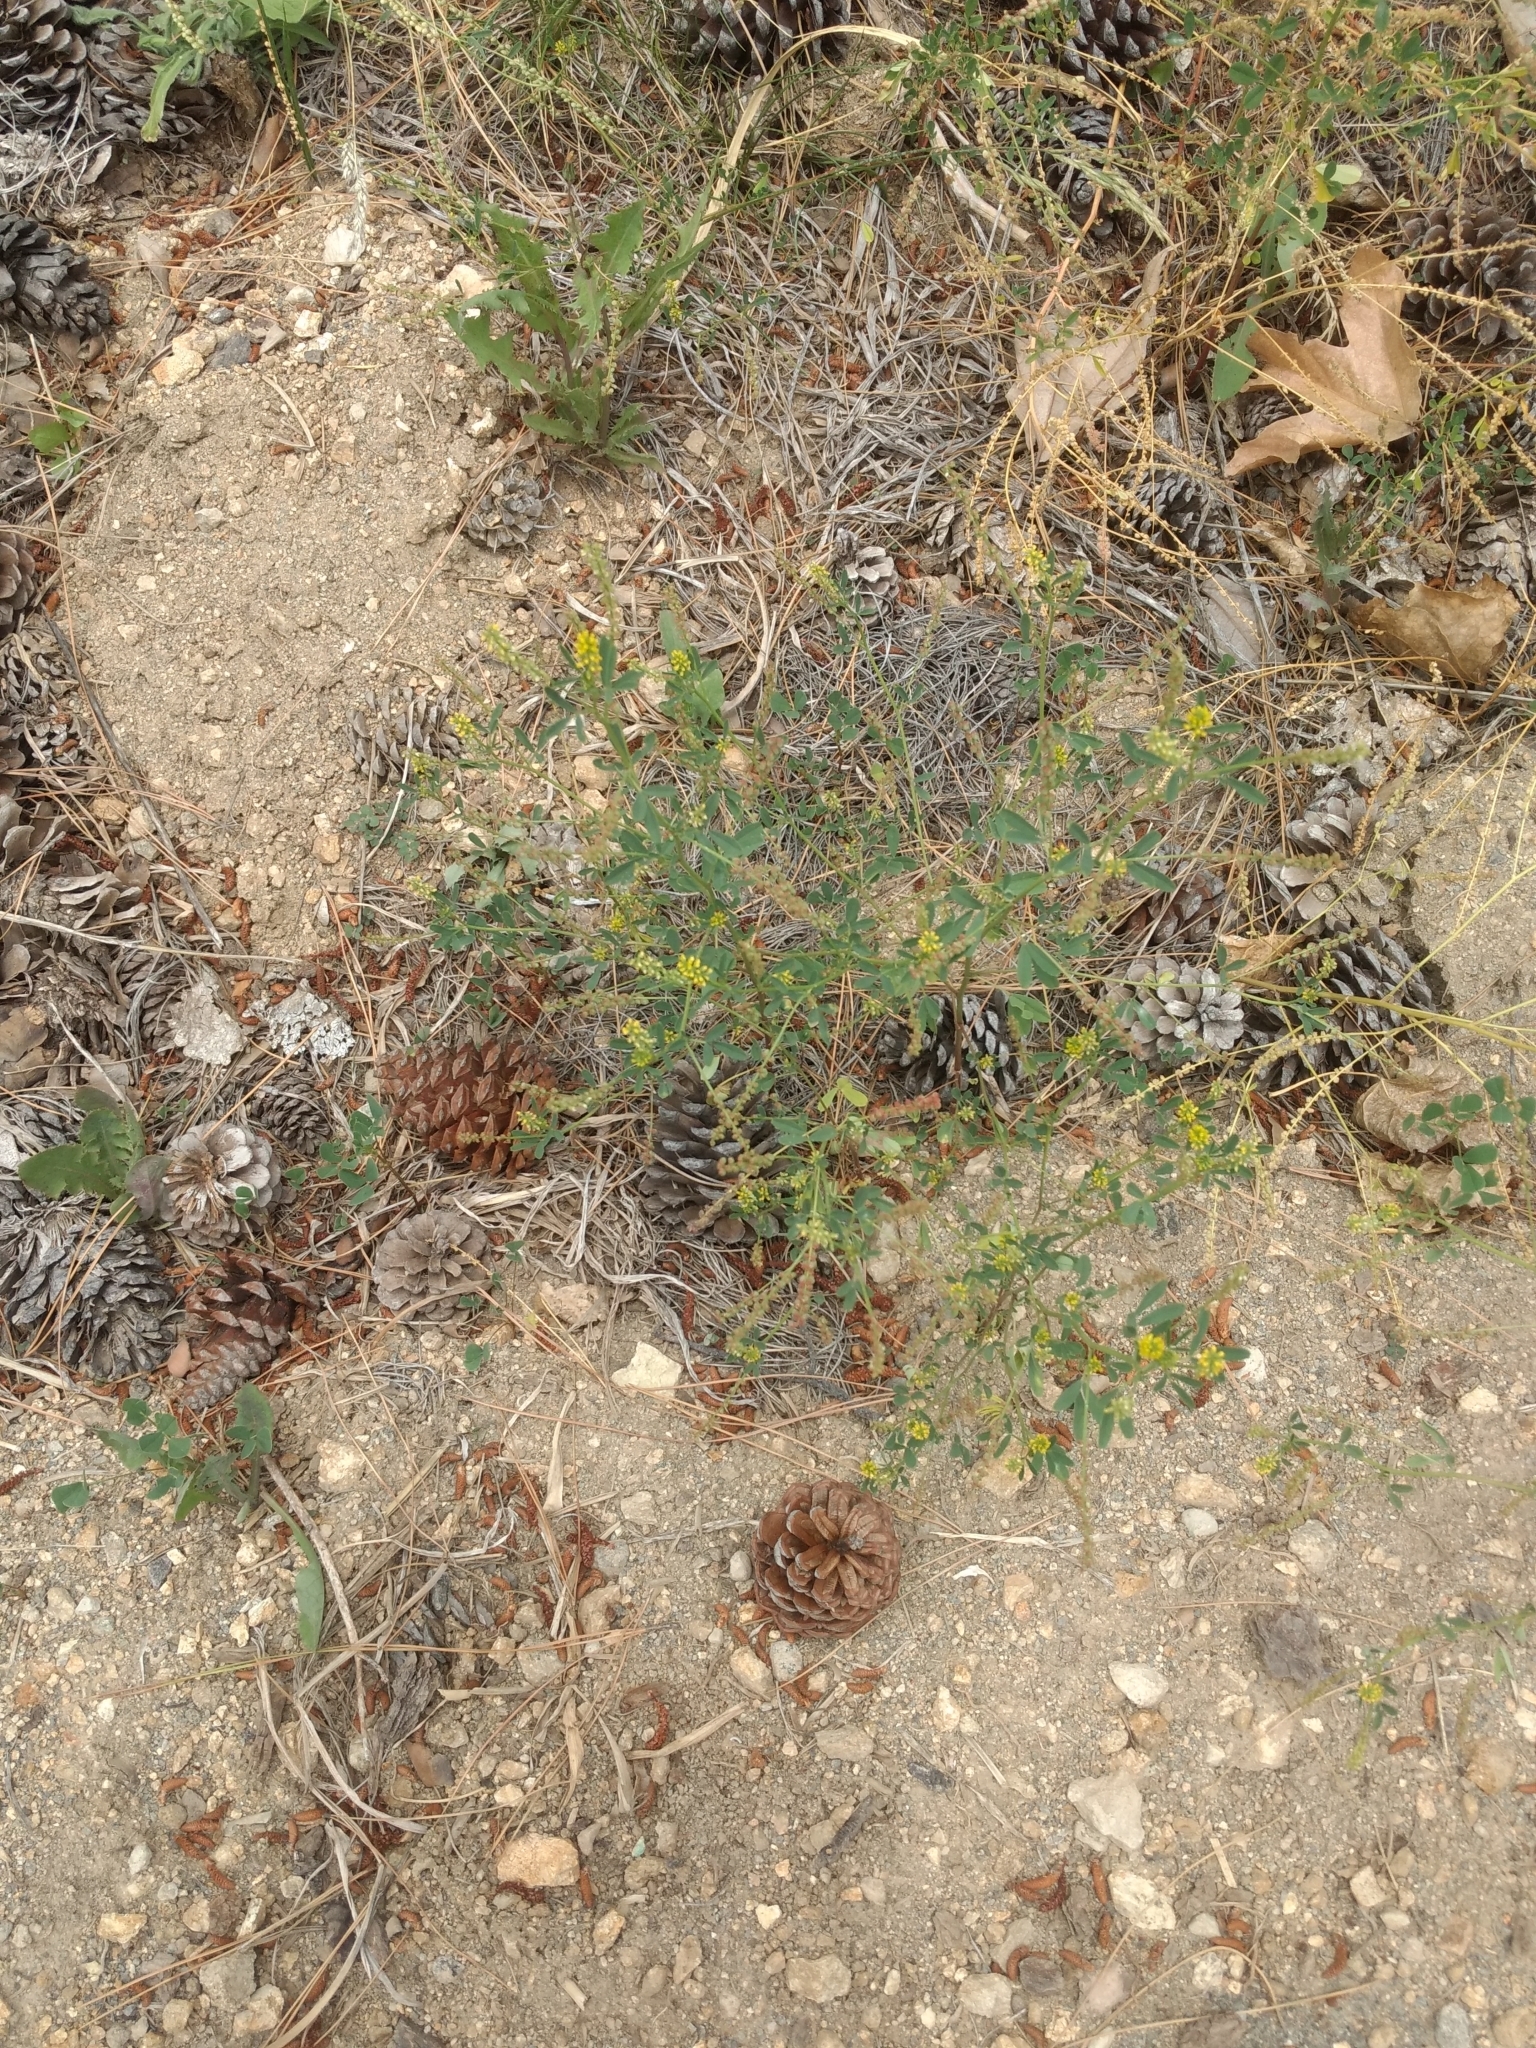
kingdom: Plantae
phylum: Tracheophyta
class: Magnoliopsida
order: Fabales
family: Fabaceae
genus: Melilotus
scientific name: Melilotus indicus
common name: Small melilot
